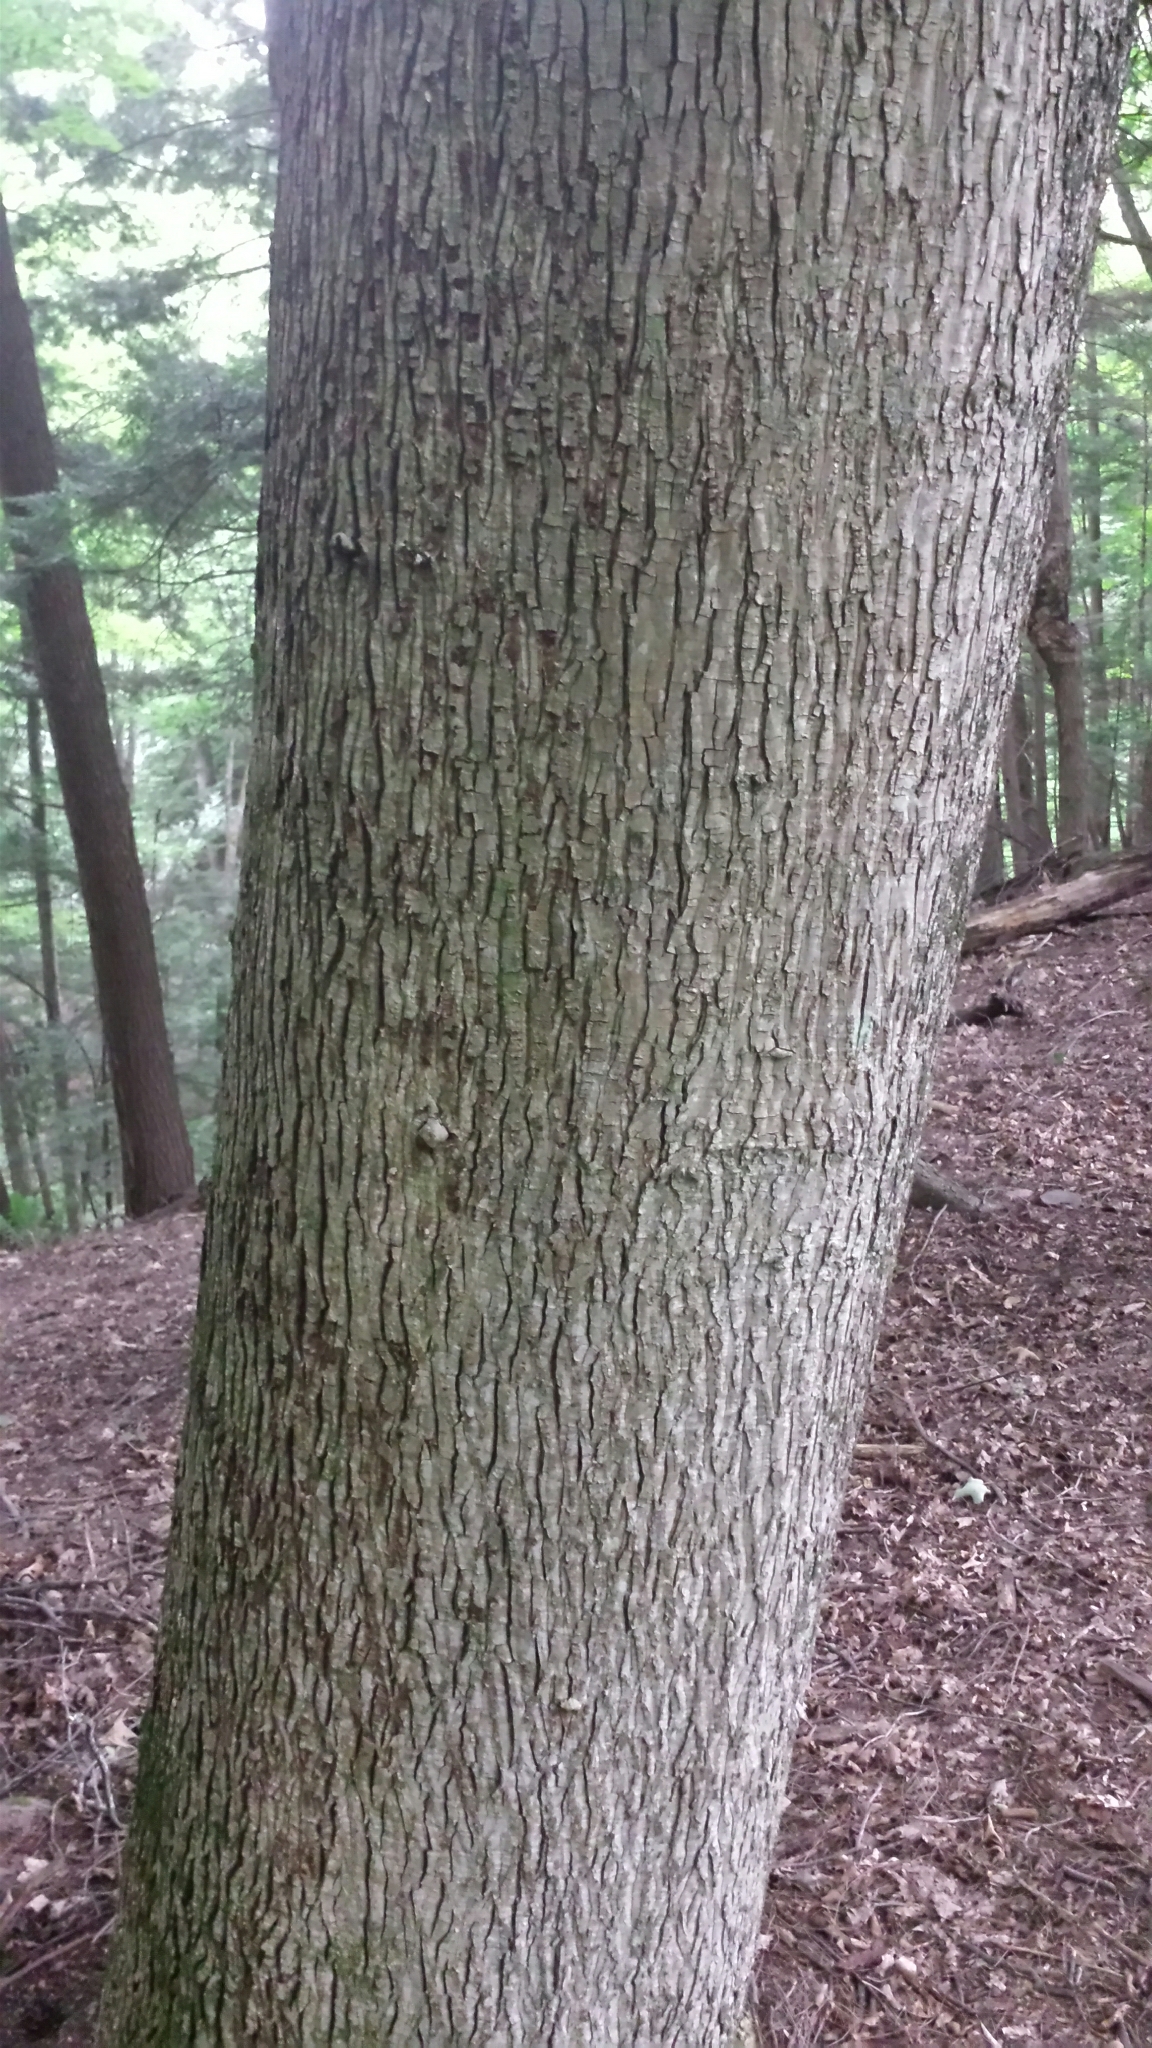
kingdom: Plantae
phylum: Tracheophyta
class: Magnoliopsida
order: Fagales
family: Juglandaceae
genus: Carya
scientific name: Carya cordiformis
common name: Bitternut hickory
